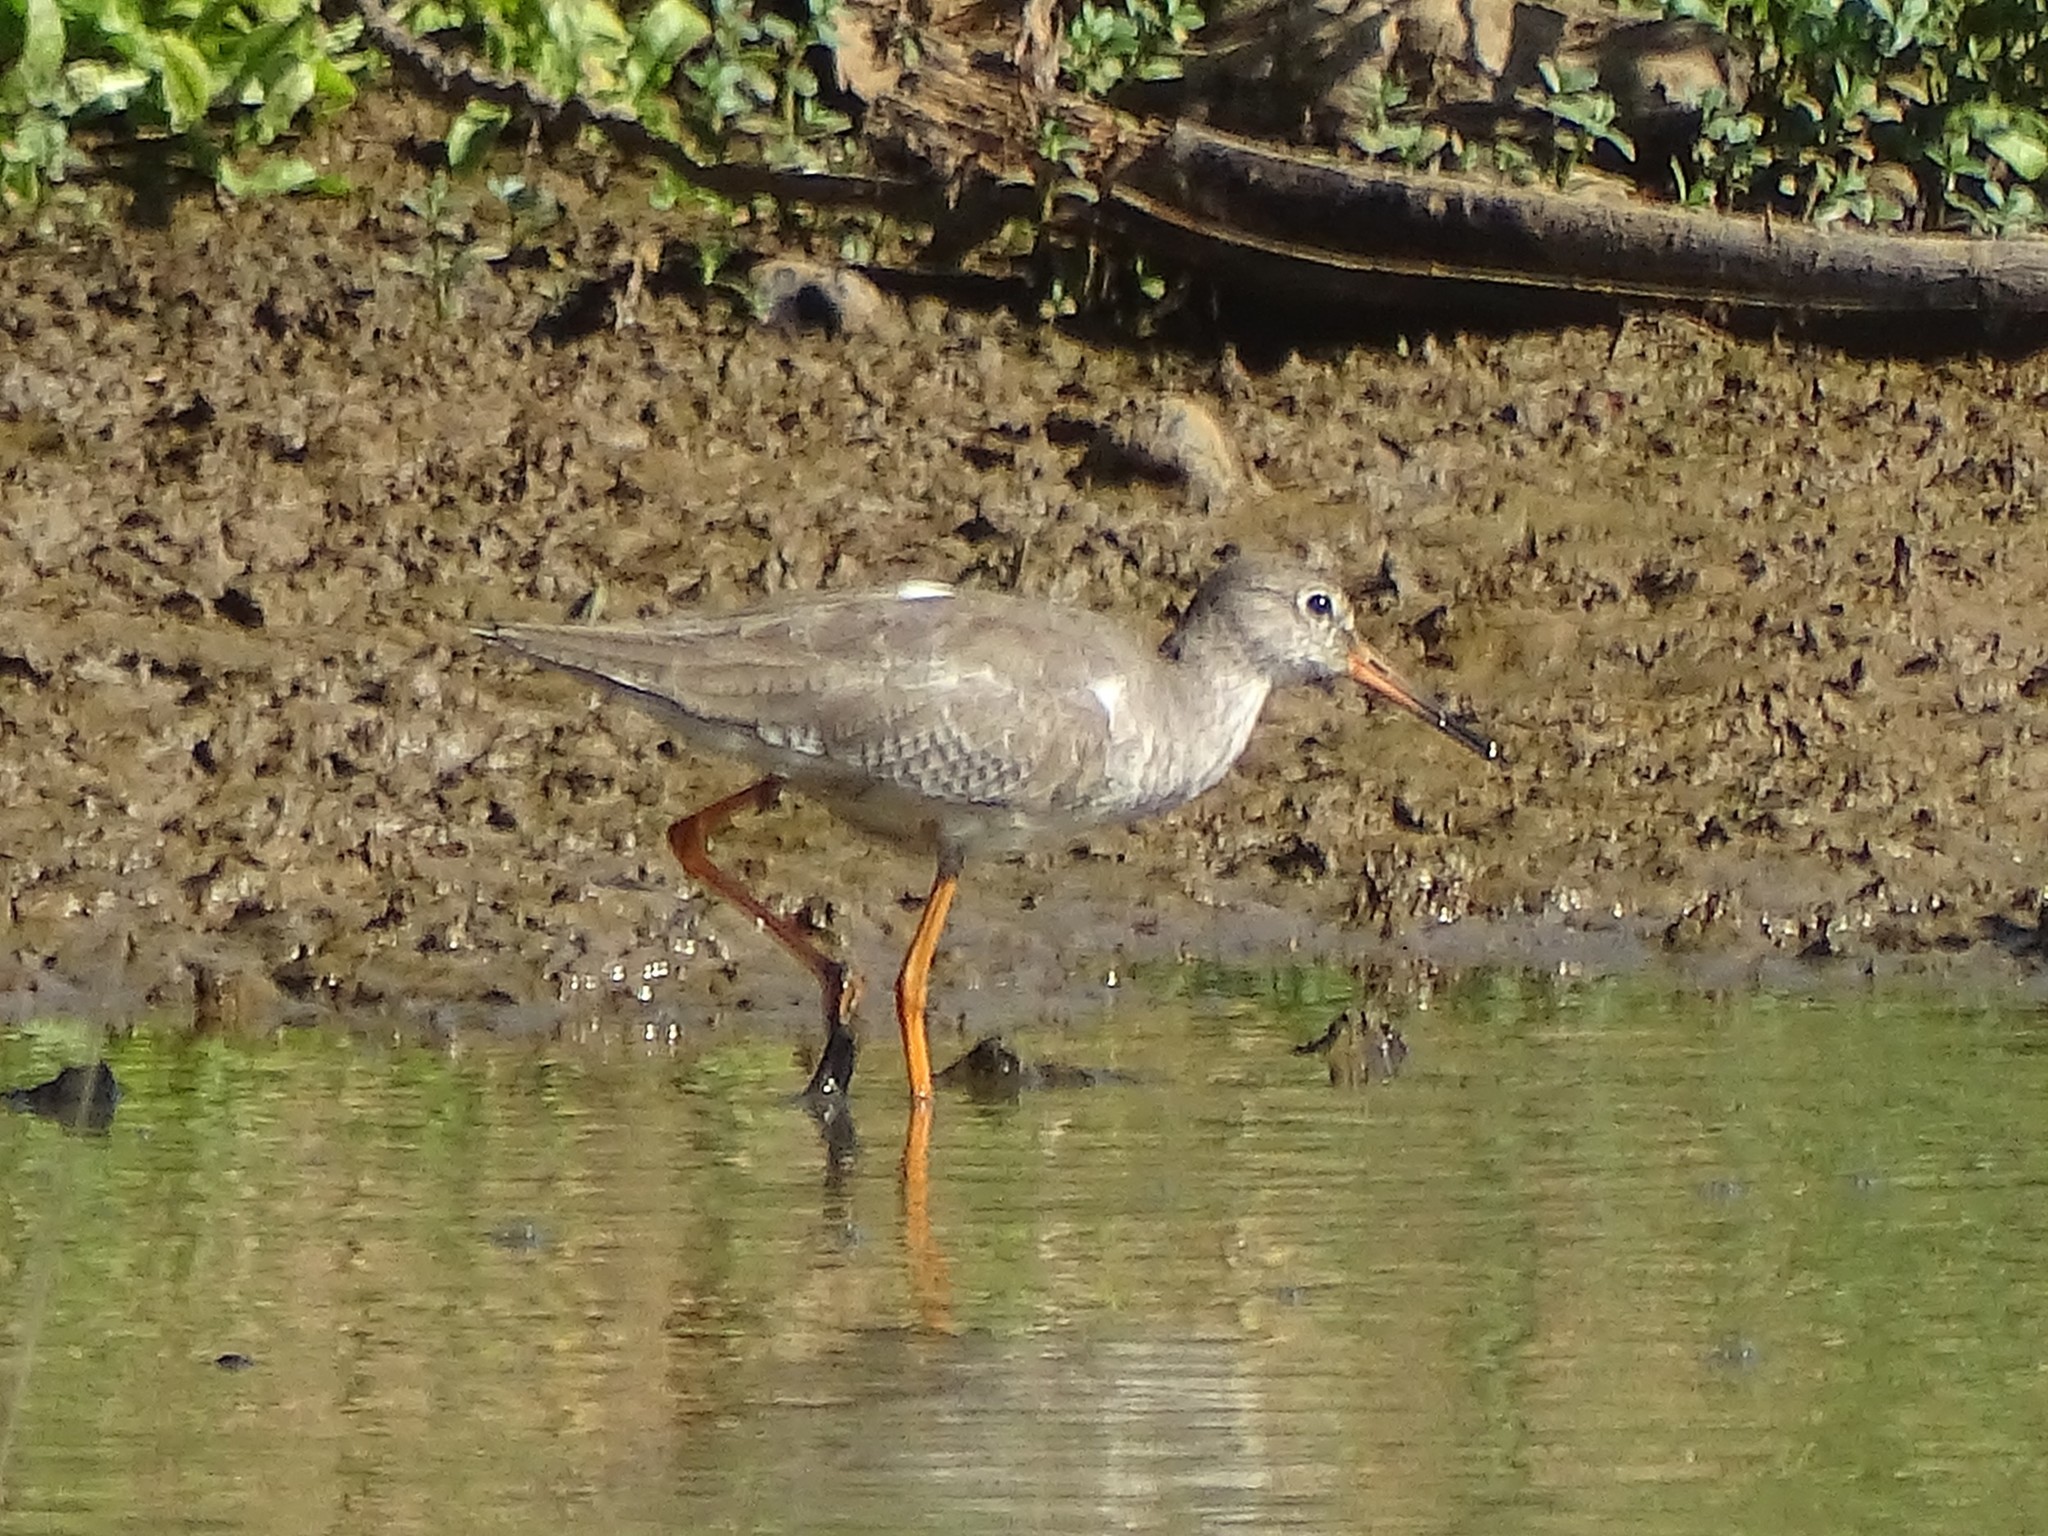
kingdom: Animalia
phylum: Chordata
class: Aves
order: Charadriiformes
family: Scolopacidae
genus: Tringa
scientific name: Tringa totanus
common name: Common redshank
